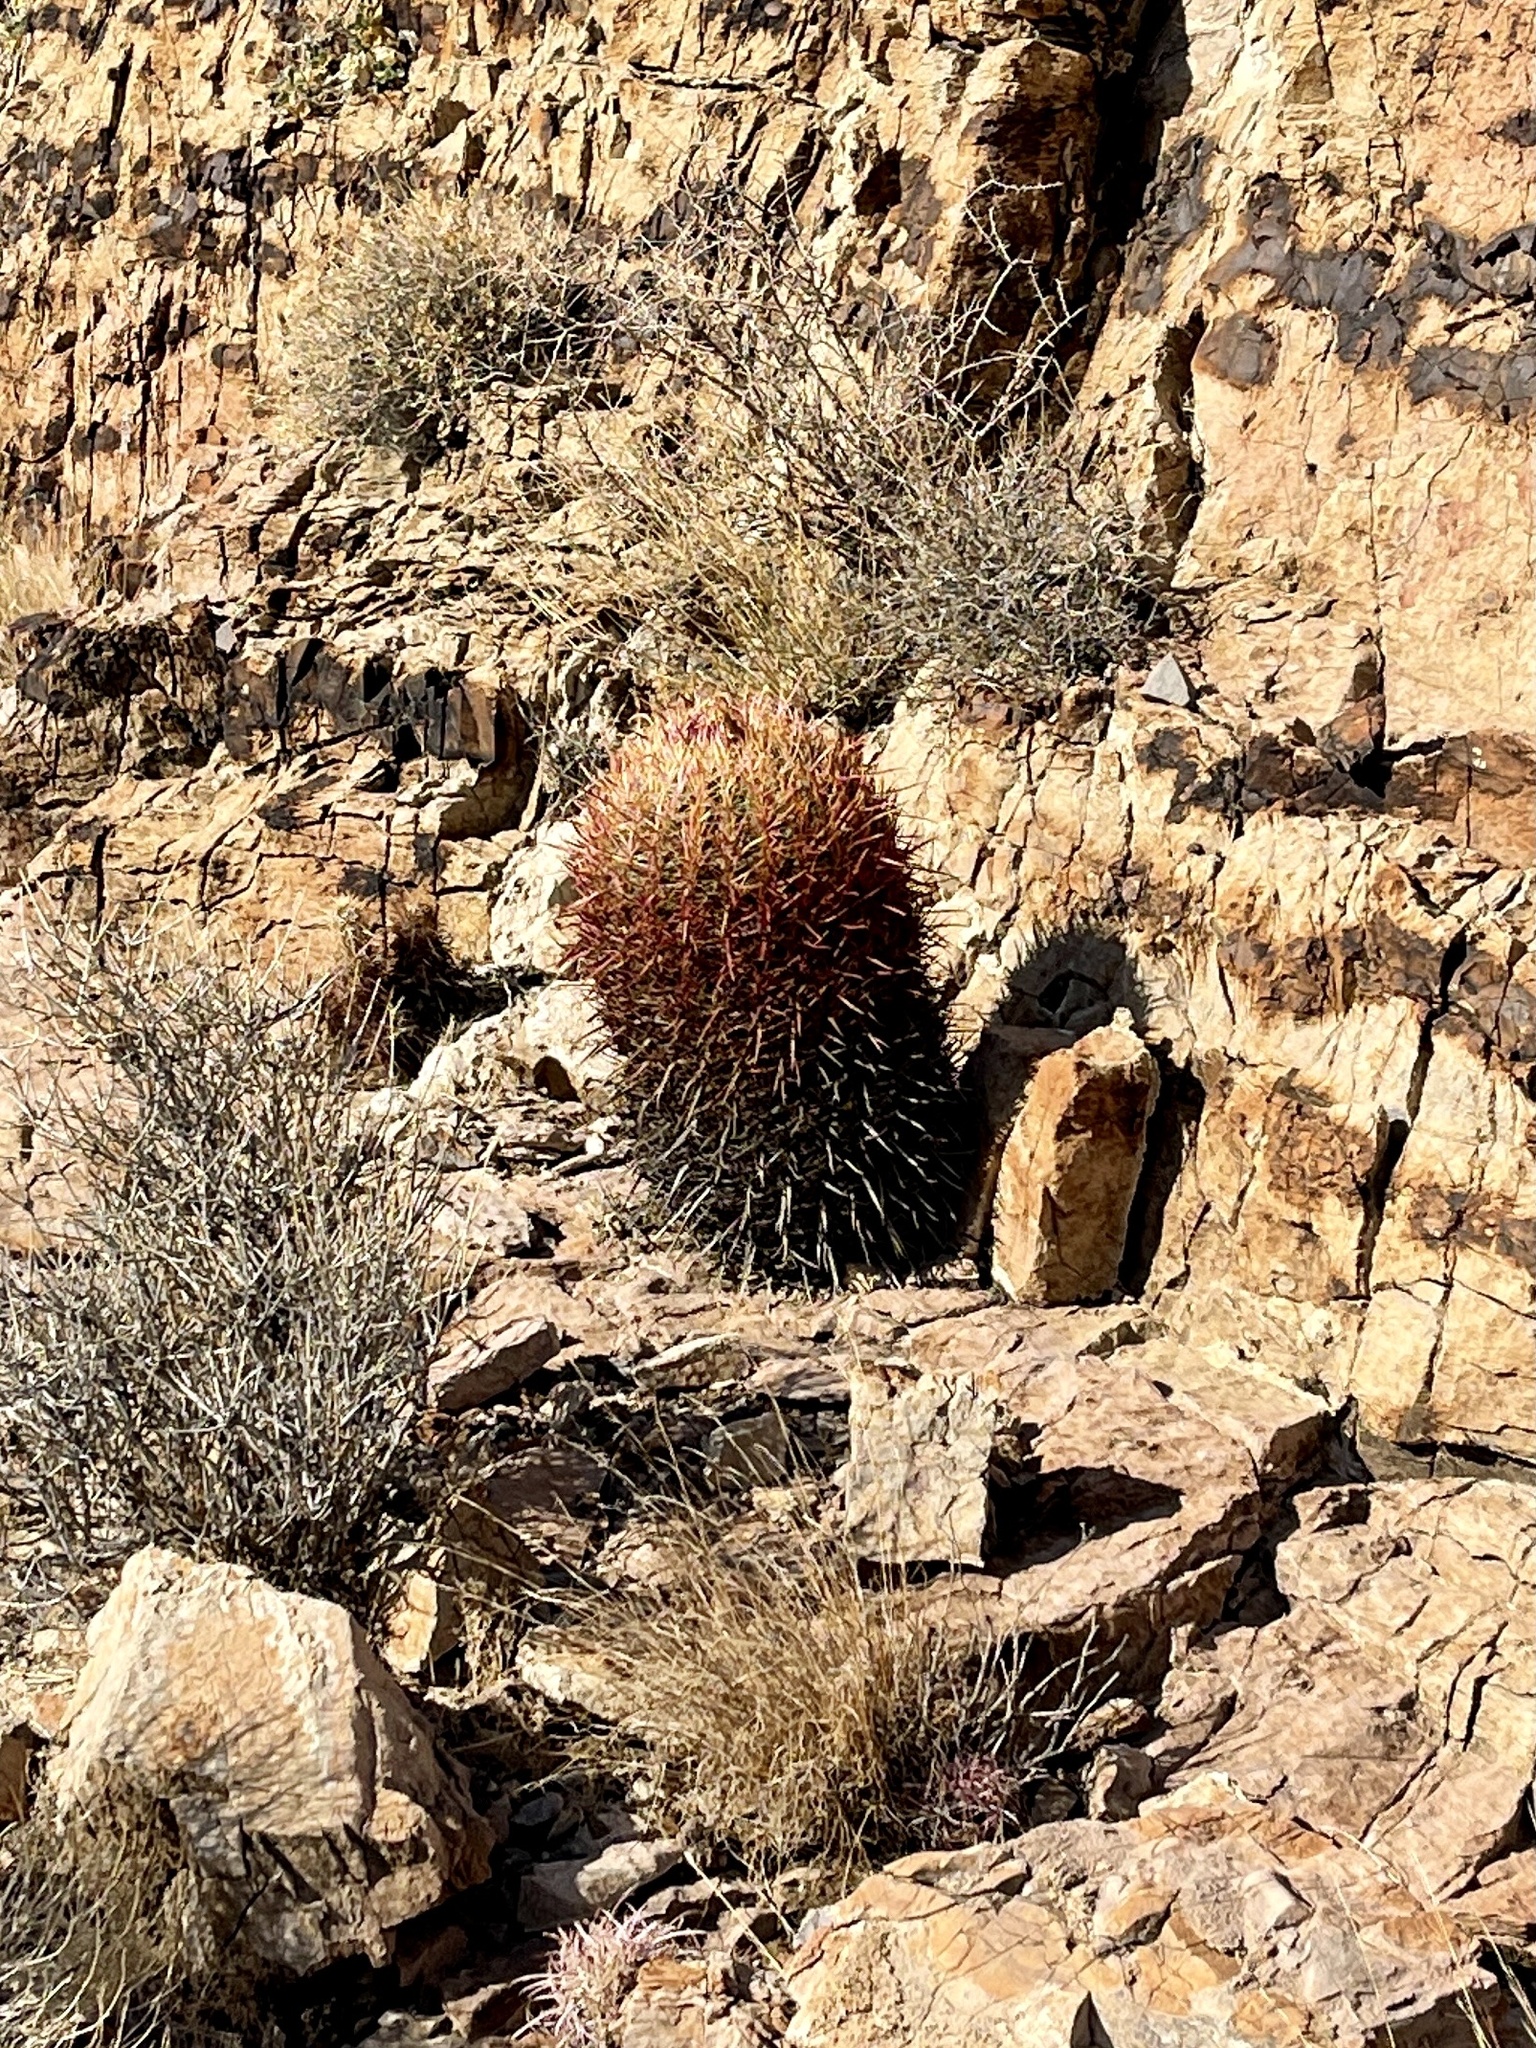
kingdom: Plantae
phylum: Tracheophyta
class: Magnoliopsida
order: Caryophyllales
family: Cactaceae
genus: Ferocactus
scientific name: Ferocactus cylindraceus
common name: California barrel cactus
